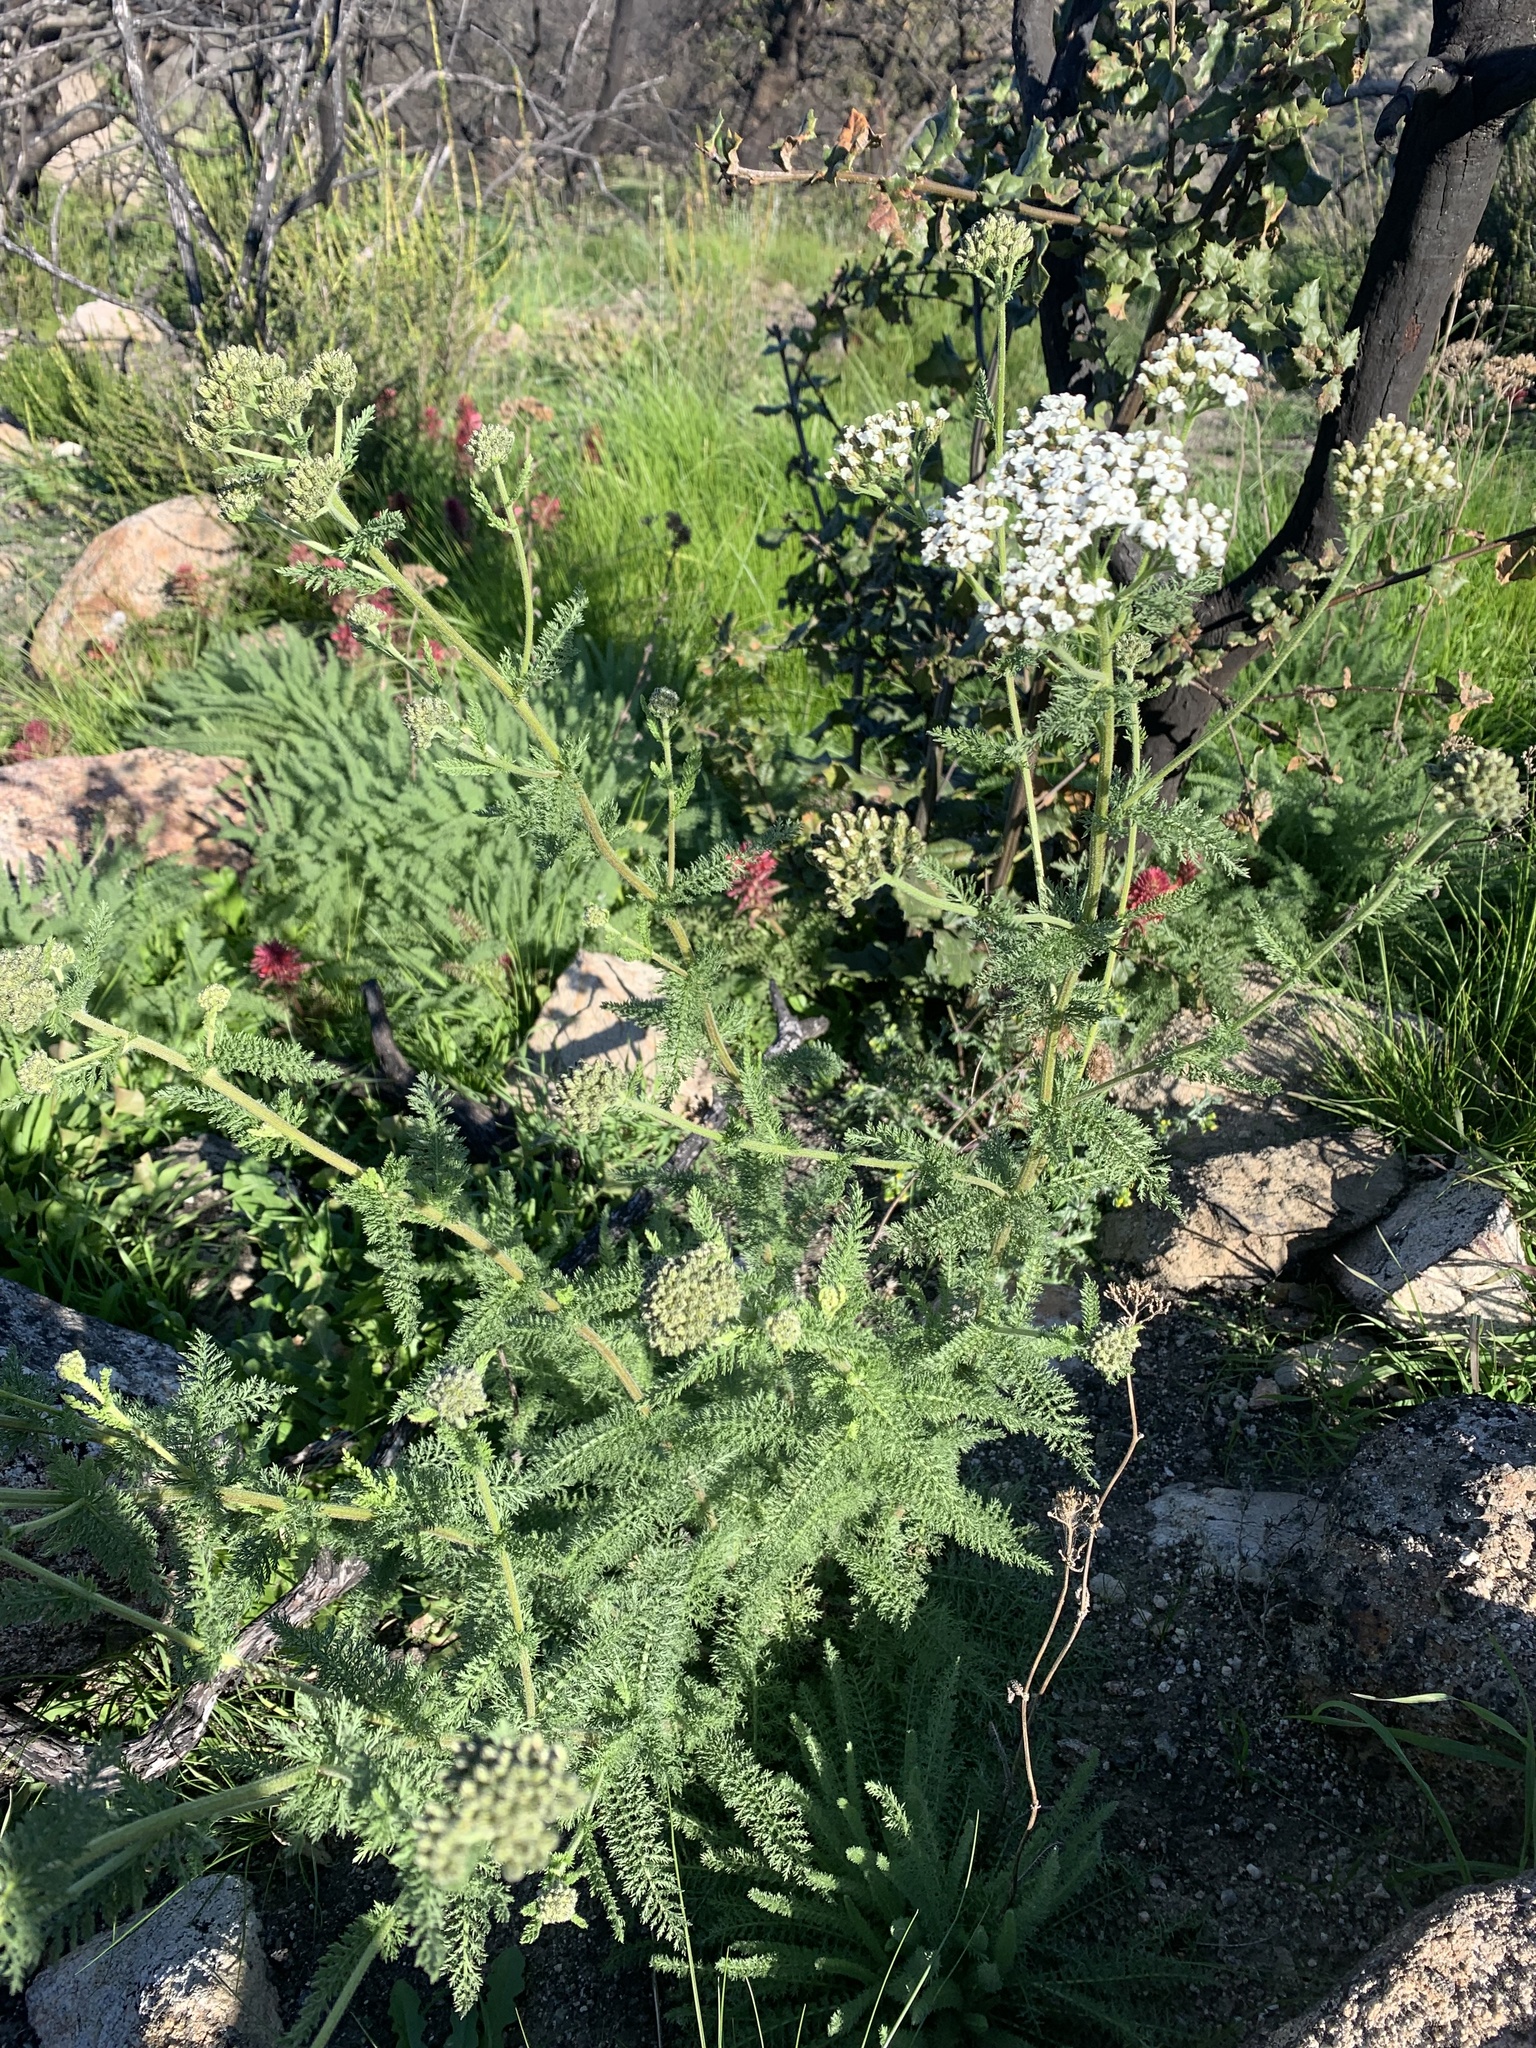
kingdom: Plantae
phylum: Tracheophyta
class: Magnoliopsida
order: Asterales
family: Asteraceae
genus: Achillea
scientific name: Achillea millefolium
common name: Yarrow
